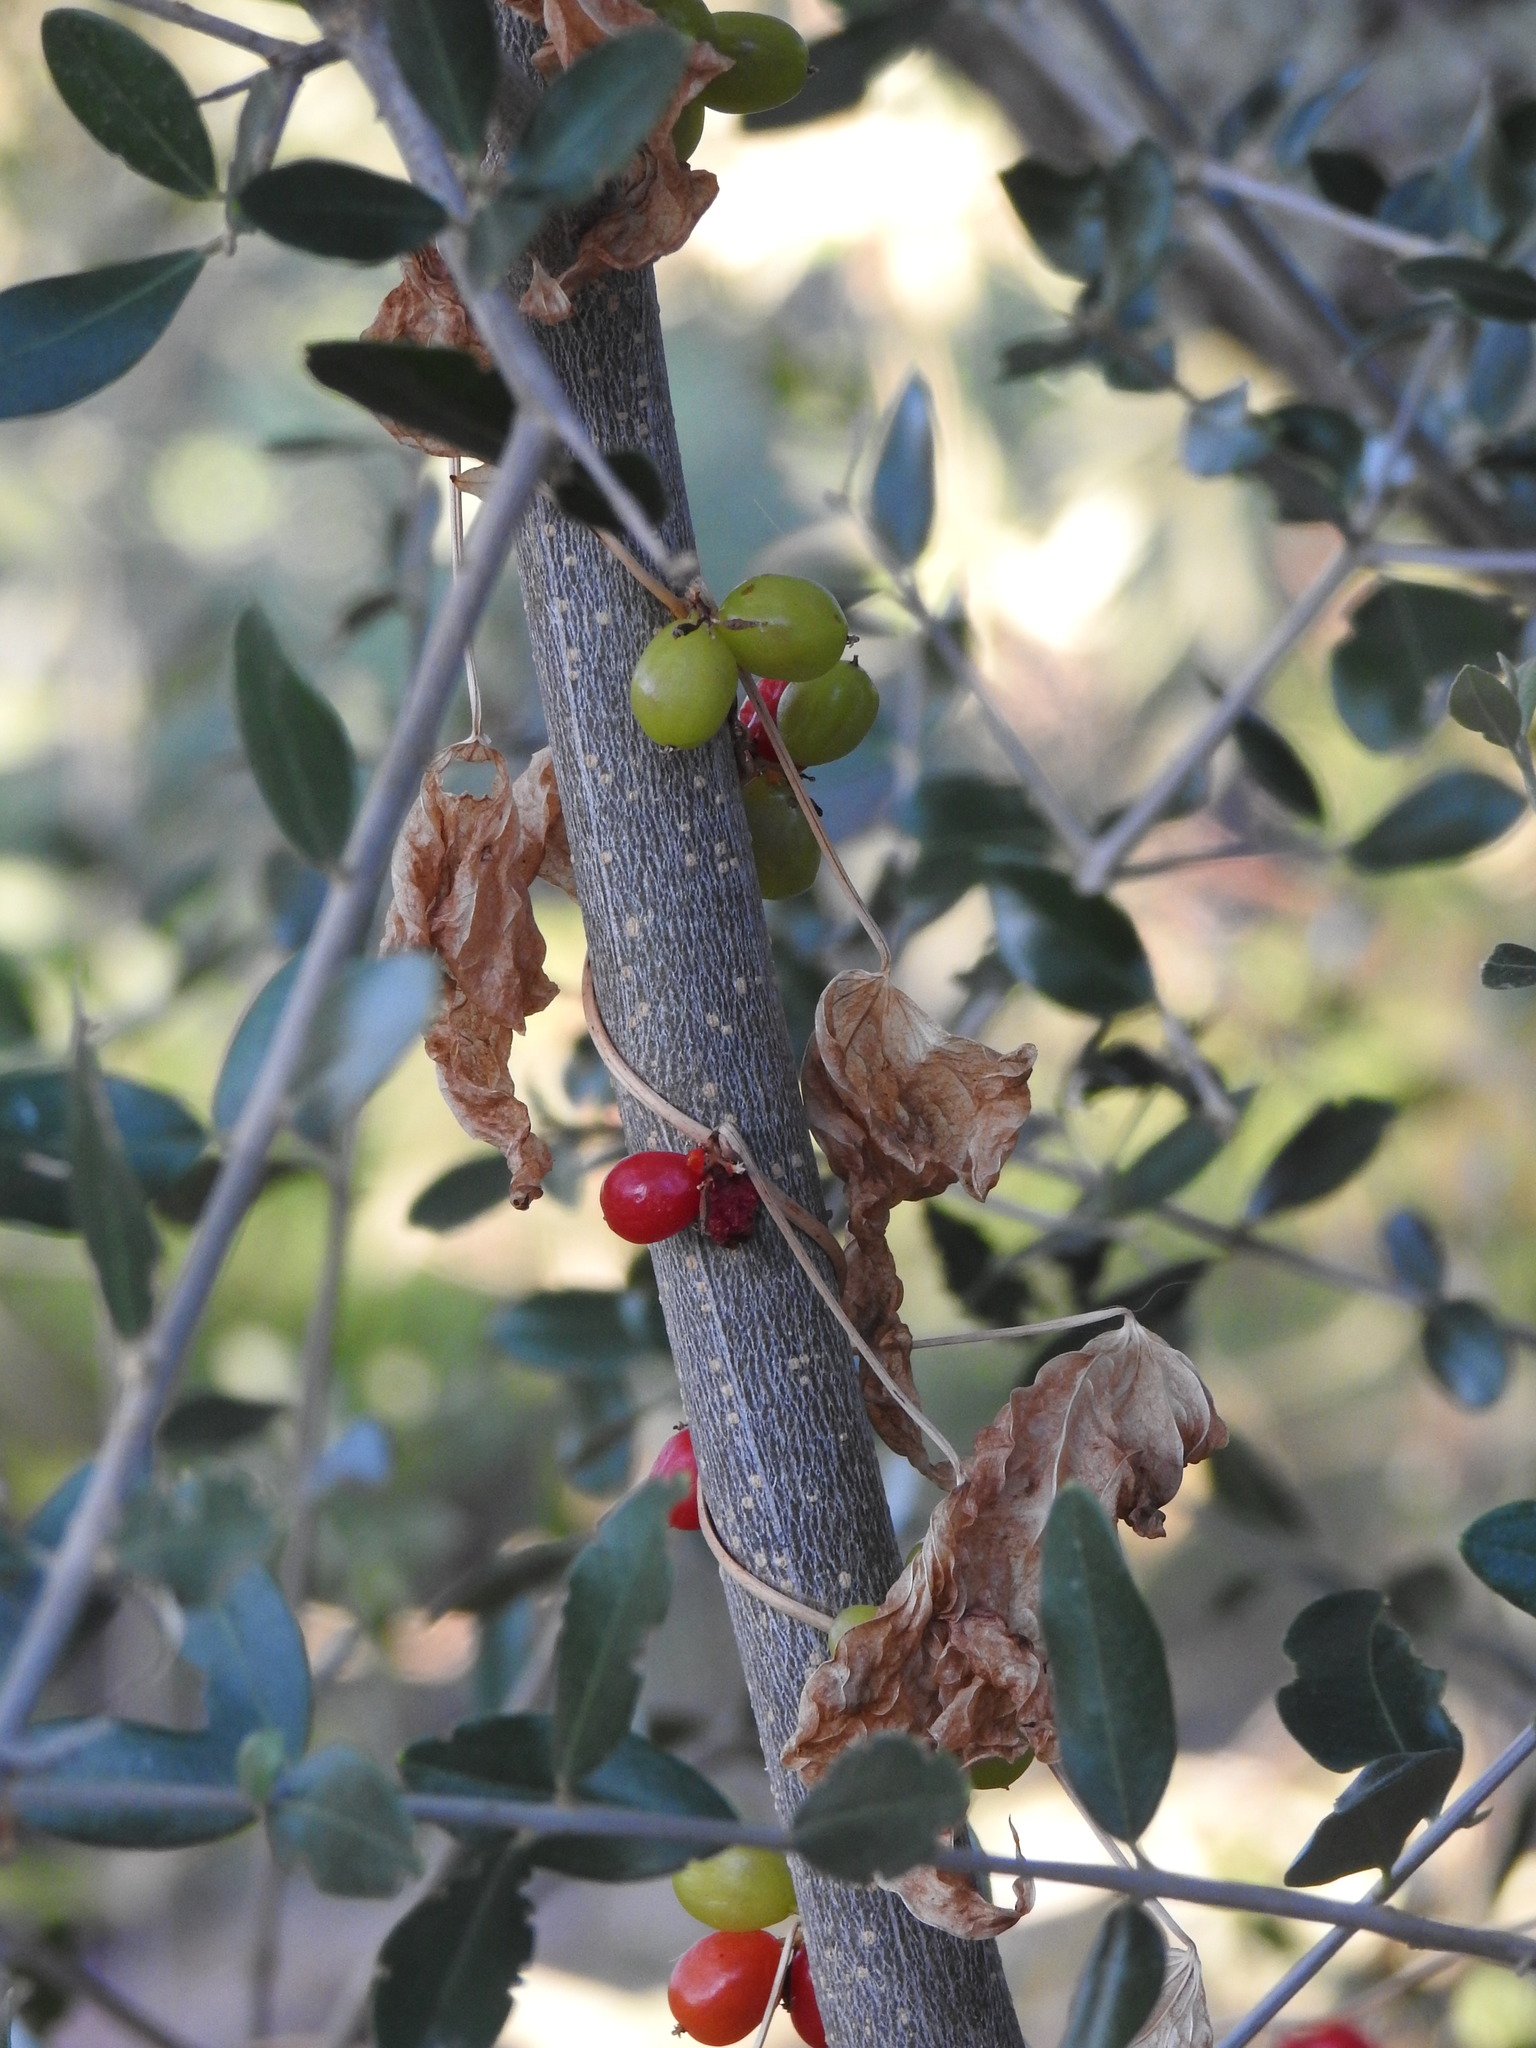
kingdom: Plantae
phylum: Tracheophyta
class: Liliopsida
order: Dioscoreales
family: Dioscoreaceae
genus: Dioscorea
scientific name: Dioscorea communis
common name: Black-bindweed
